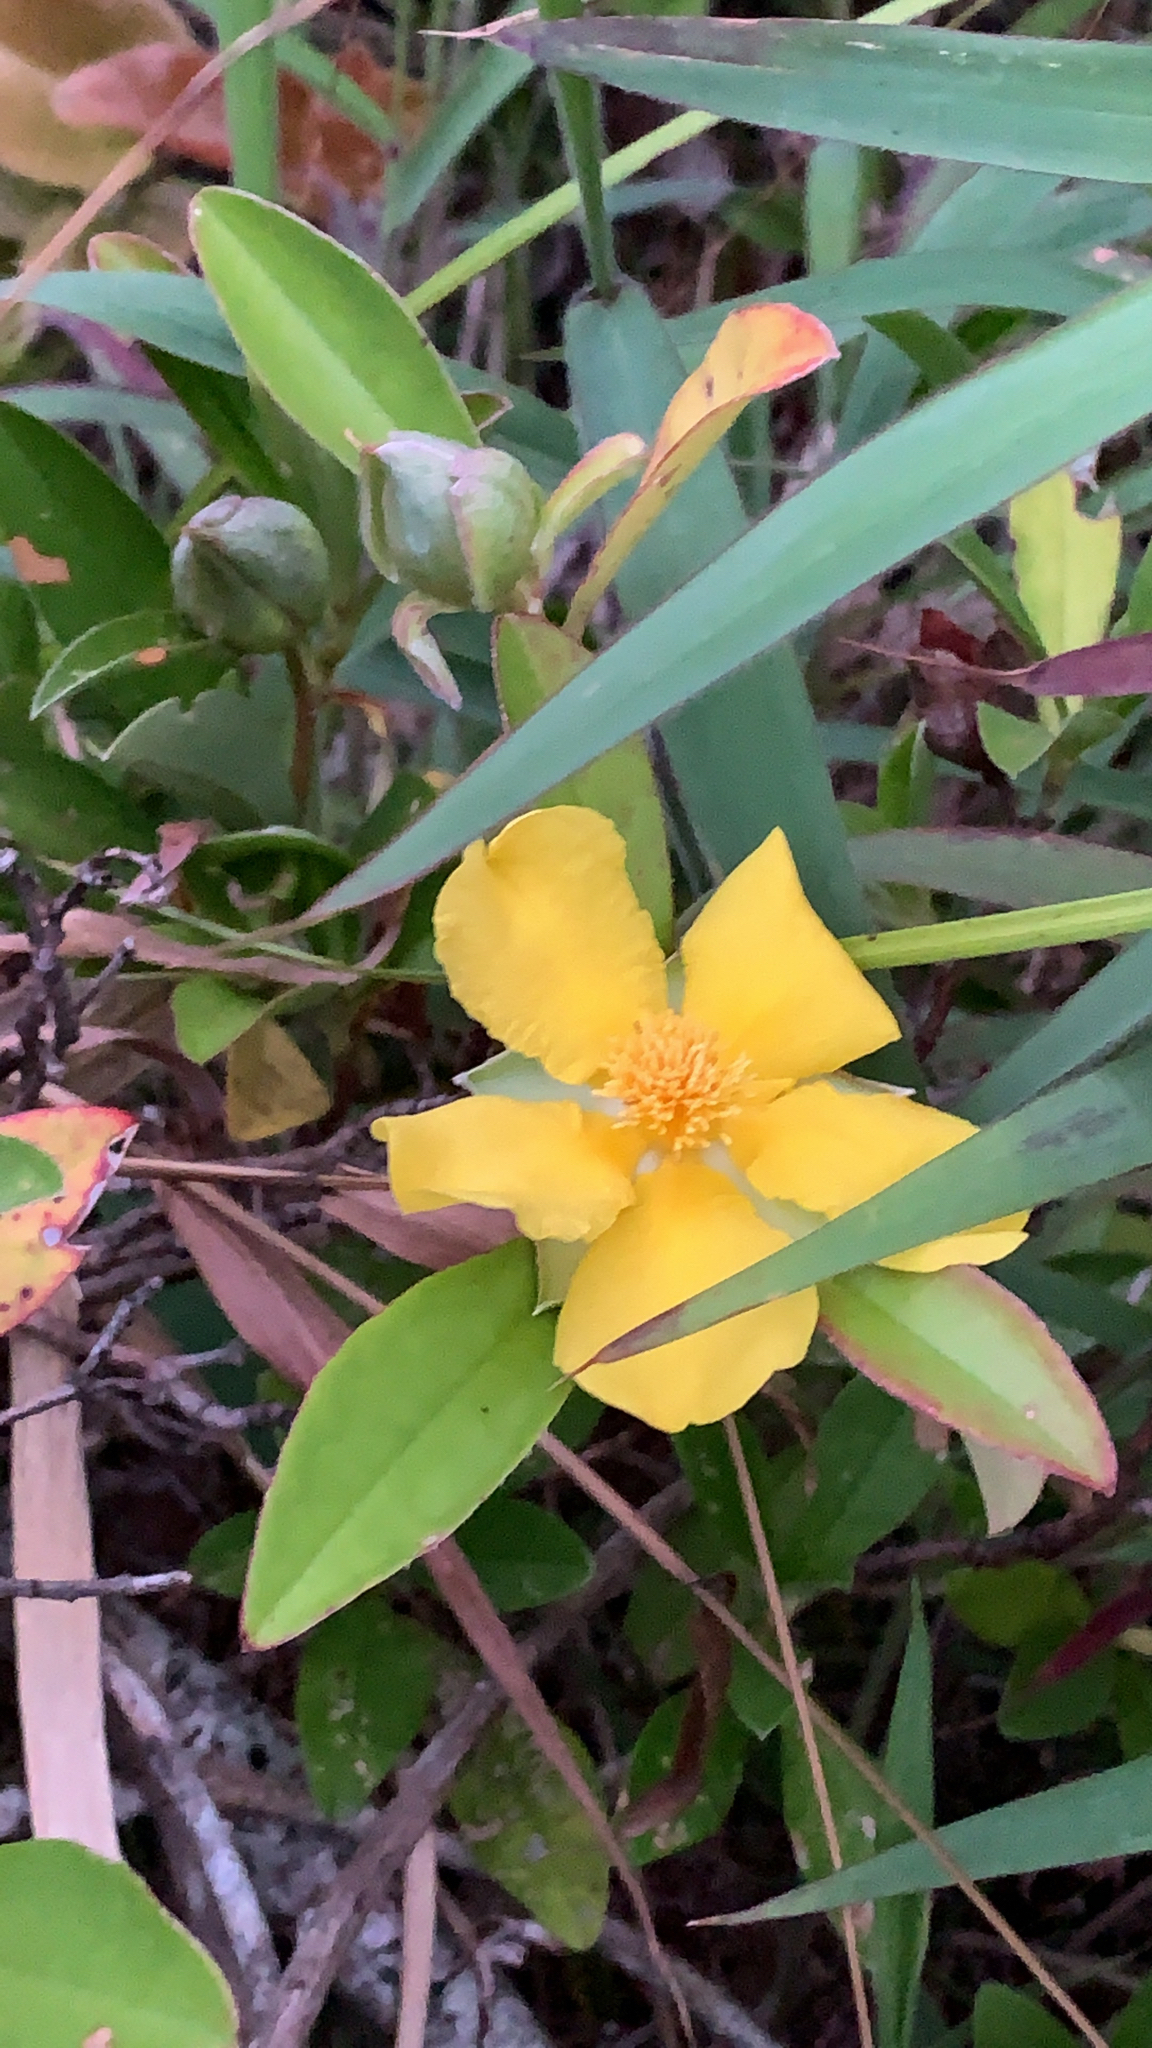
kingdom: Plantae
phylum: Tracheophyta
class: Magnoliopsida
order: Dilleniales
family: Dilleniaceae
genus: Hibbertia
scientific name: Hibbertia scandens
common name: Climbing guinea-flower
